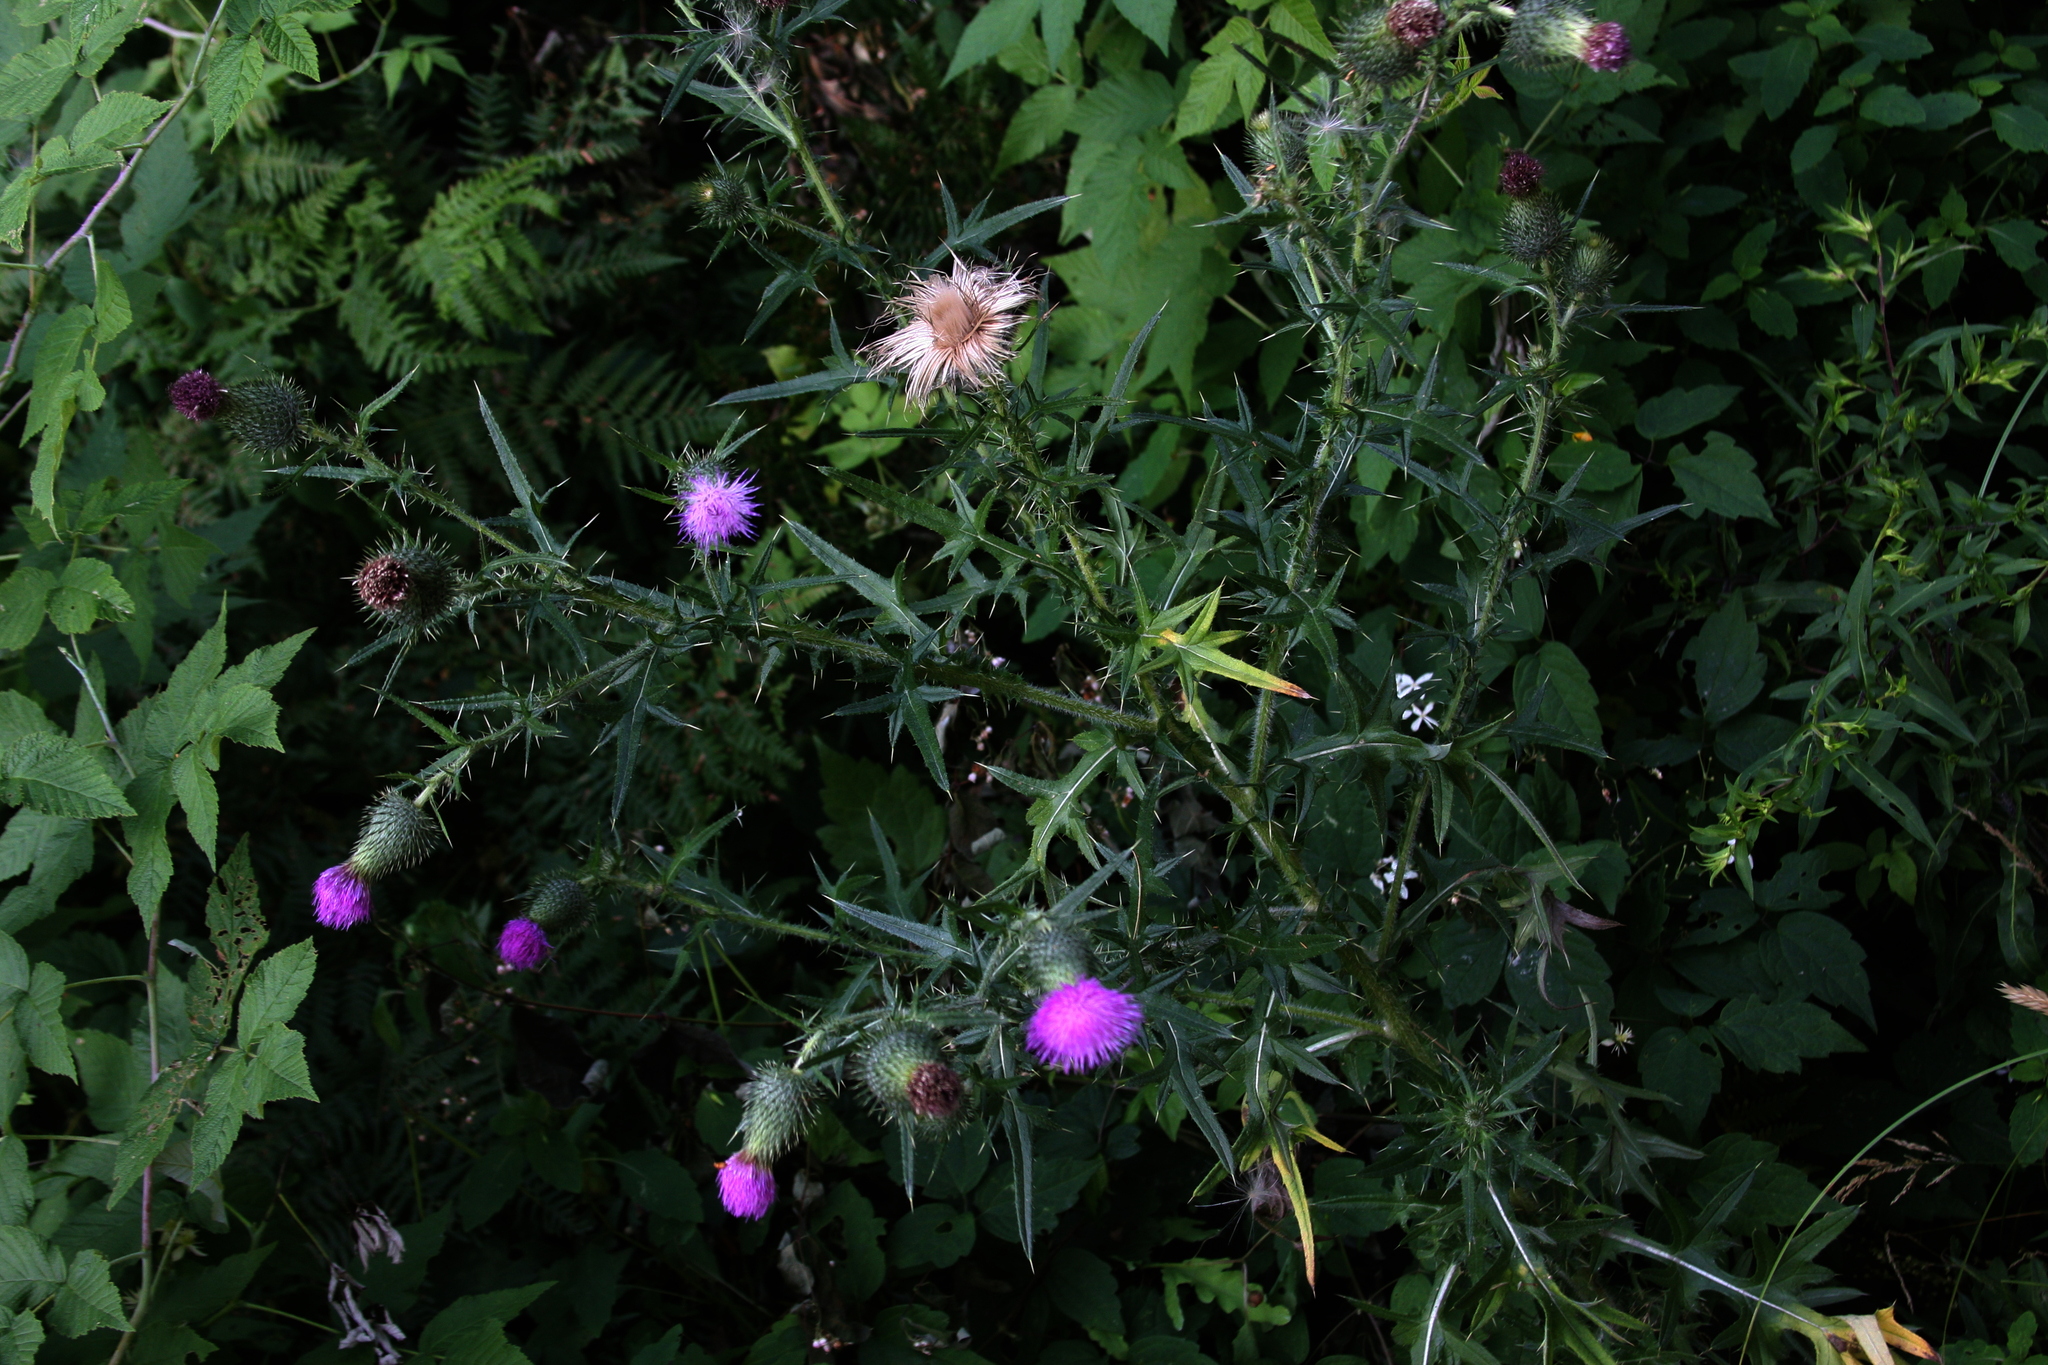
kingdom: Plantae
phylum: Tracheophyta
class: Magnoliopsida
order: Asterales
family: Asteraceae
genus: Cirsium
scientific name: Cirsium vulgare
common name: Bull thistle
